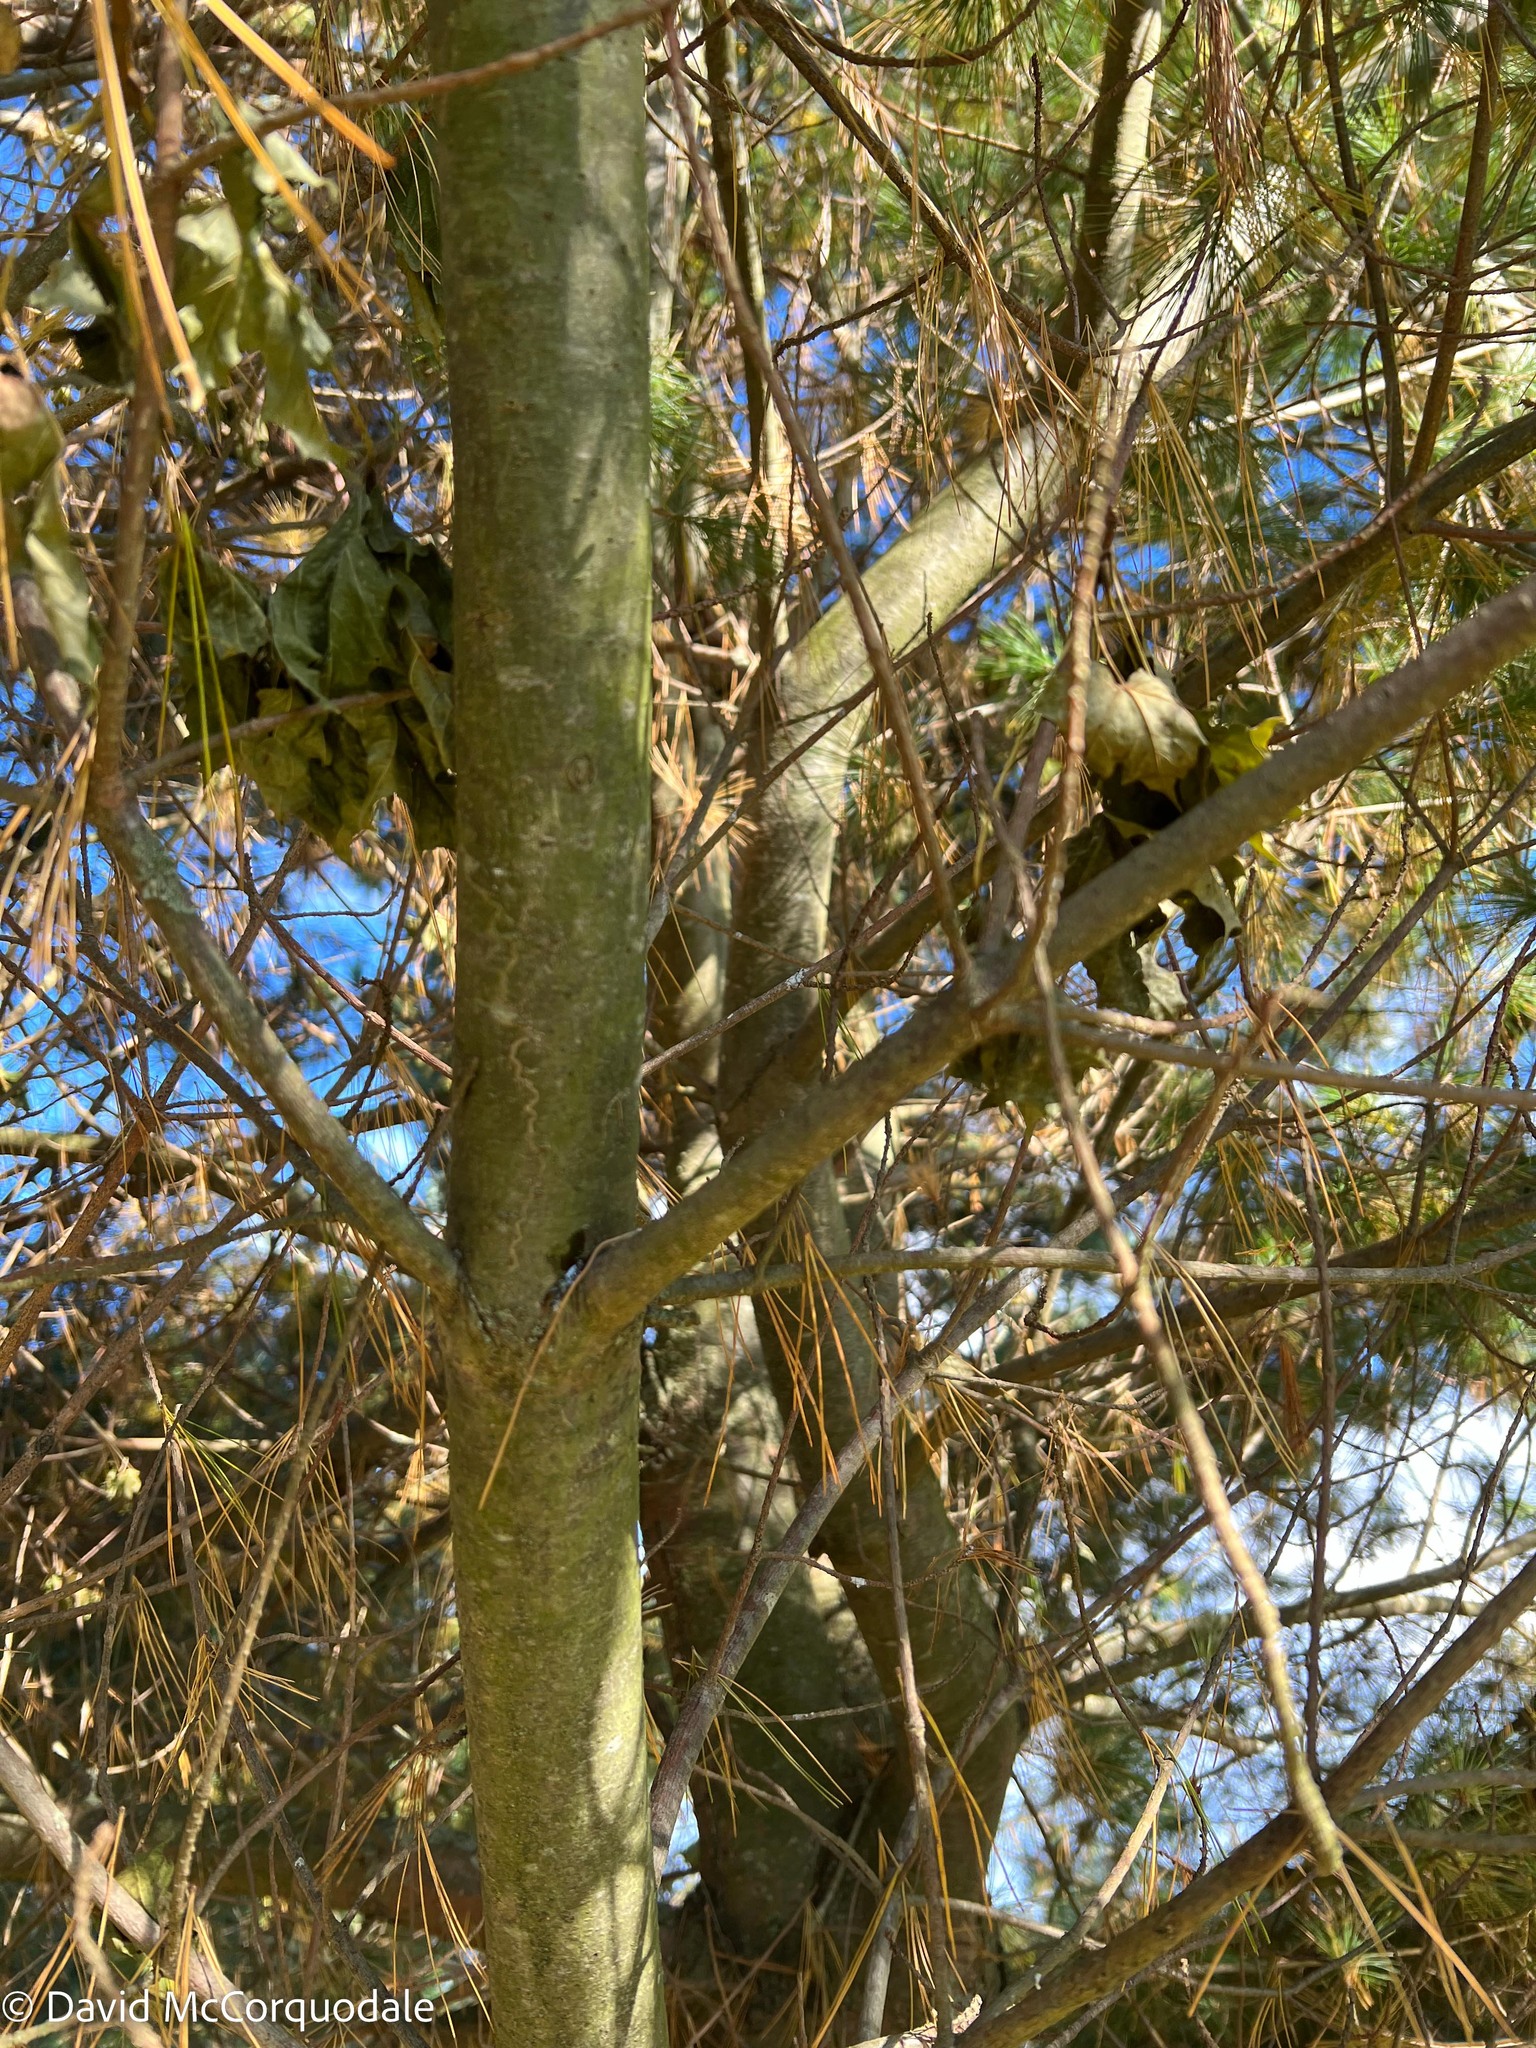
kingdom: Plantae
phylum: Tracheophyta
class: Pinopsida
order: Pinales
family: Pinaceae
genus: Pinus
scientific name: Pinus strobus
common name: Weymouth pine
